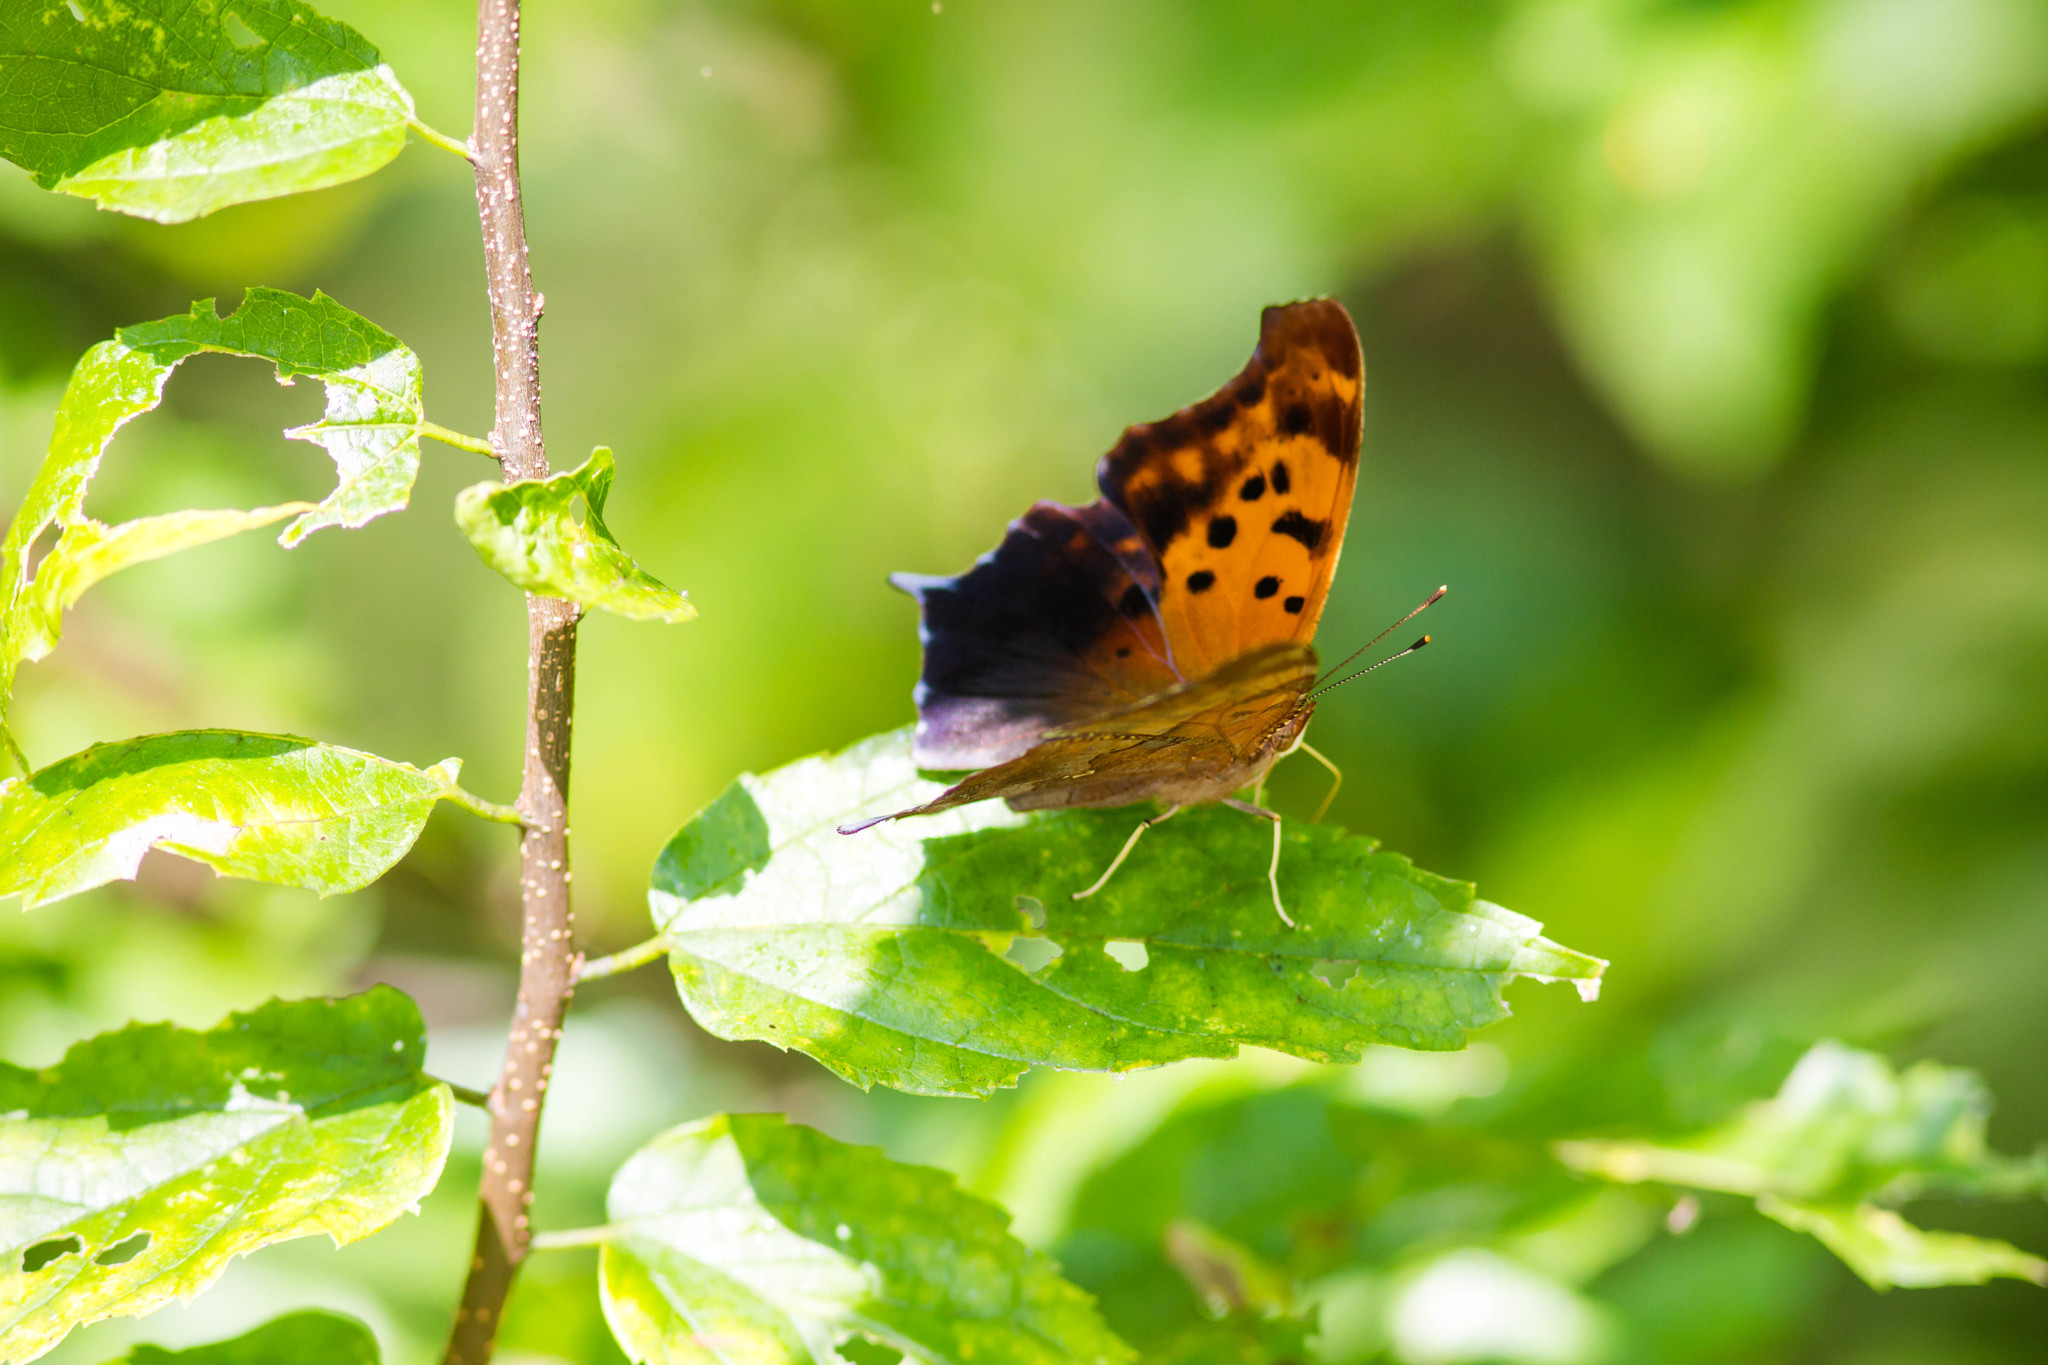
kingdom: Animalia
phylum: Arthropoda
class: Insecta
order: Lepidoptera
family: Nymphalidae
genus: Polygonia
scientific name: Polygonia interrogationis
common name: Question mark
